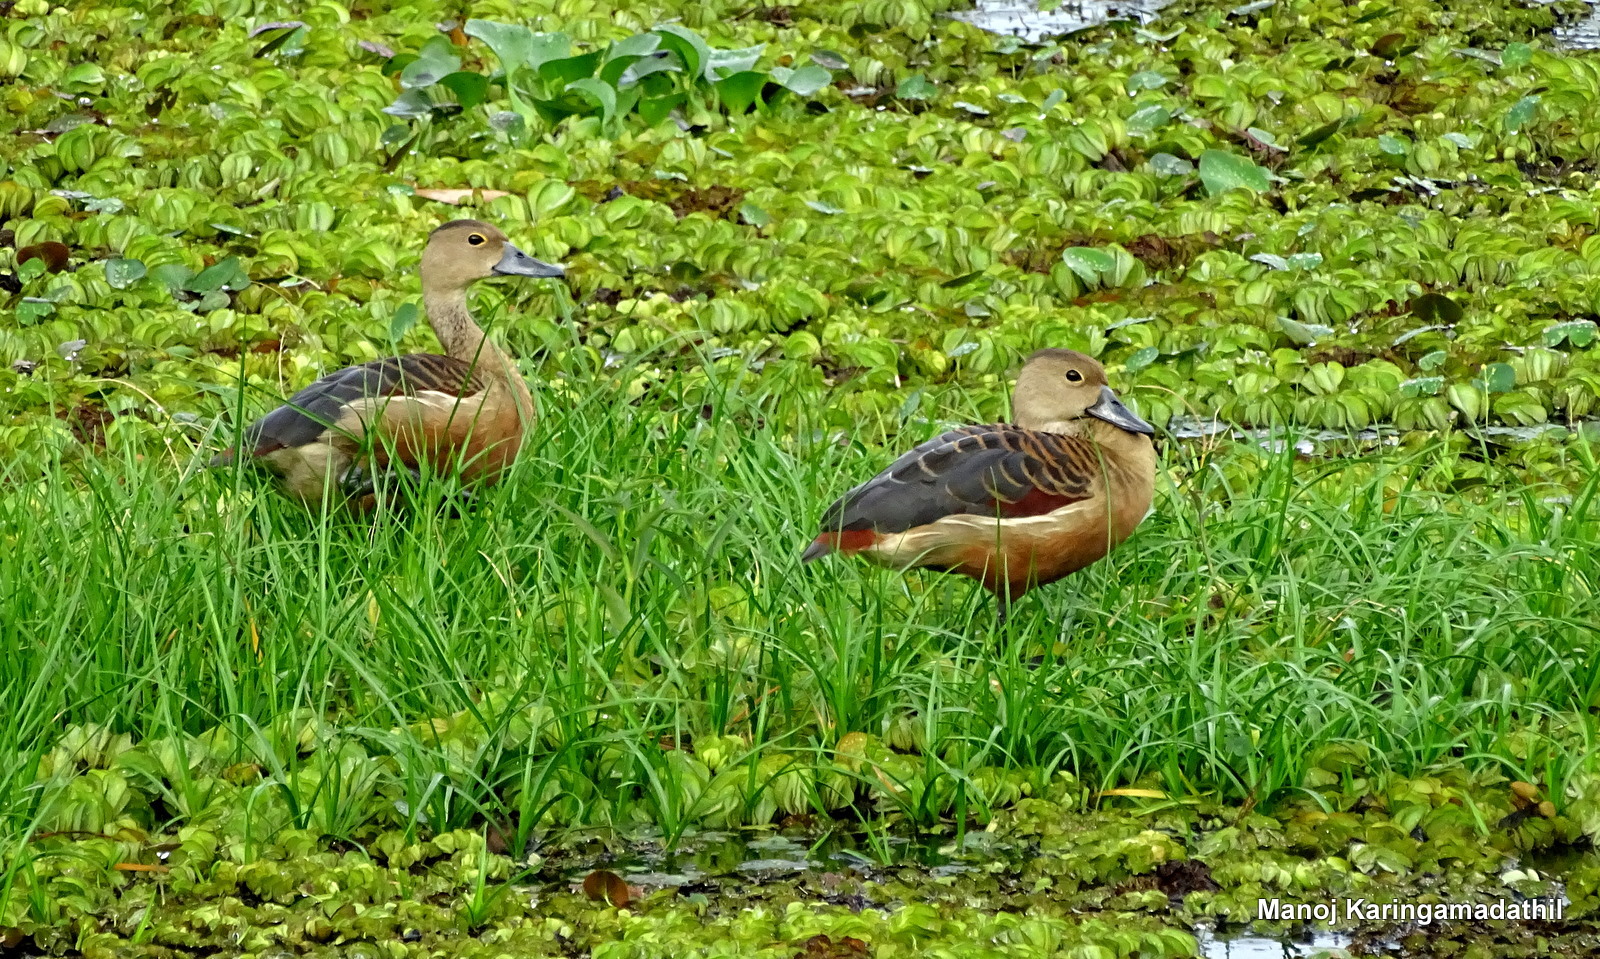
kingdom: Animalia
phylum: Chordata
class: Aves
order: Anseriformes
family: Anatidae
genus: Dendrocygna
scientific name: Dendrocygna javanica
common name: Lesser whistling-duck
